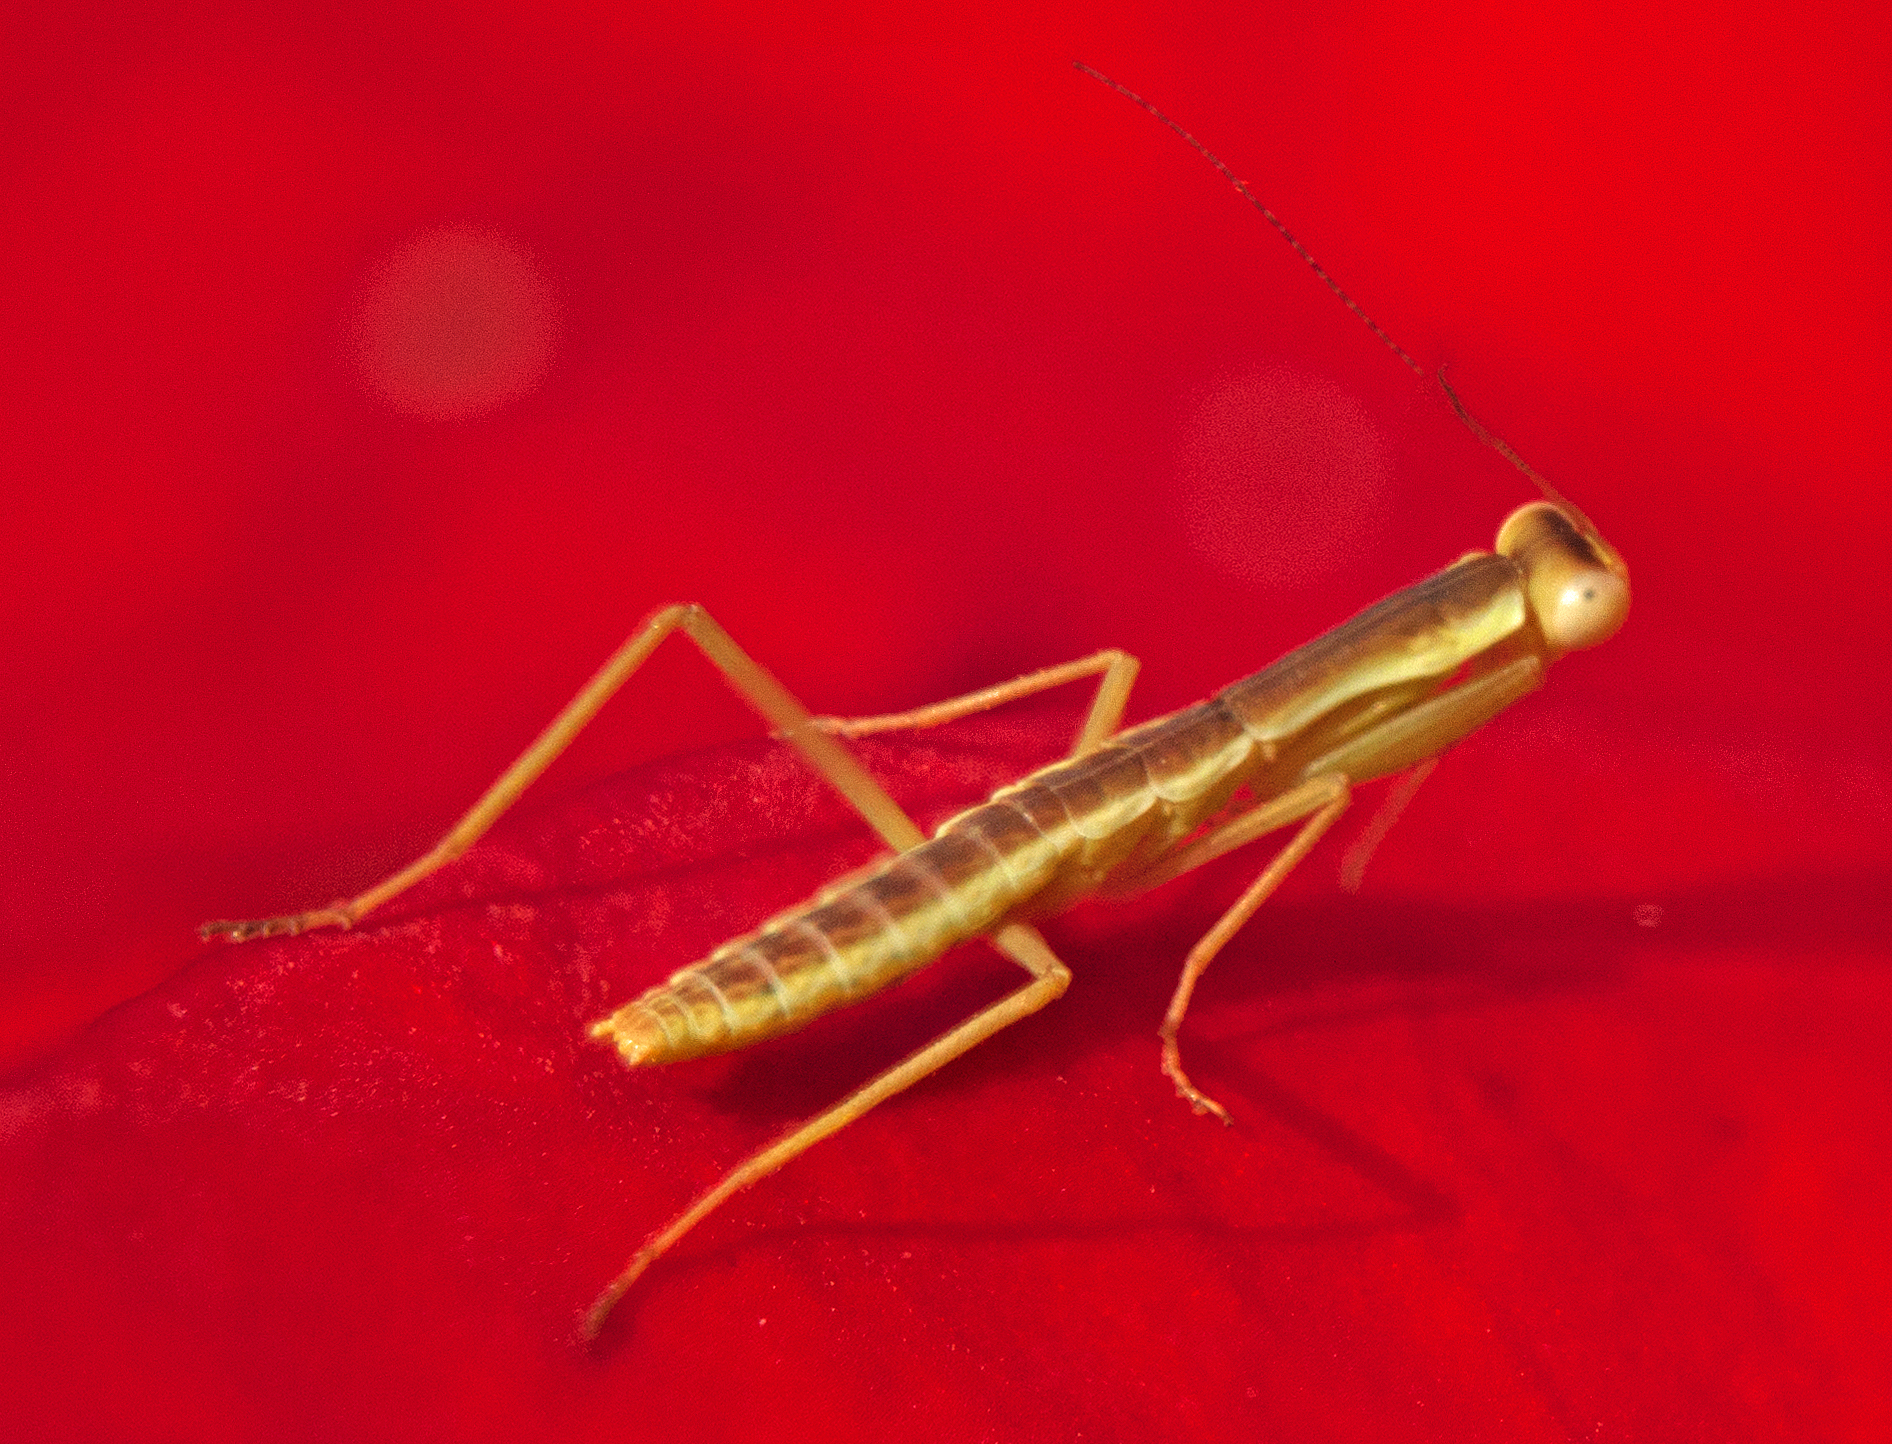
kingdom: Animalia
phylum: Arthropoda
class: Insecta
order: Mantodea
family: Mantidae
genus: Orthodera
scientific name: Orthodera ministralis
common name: Mantis
